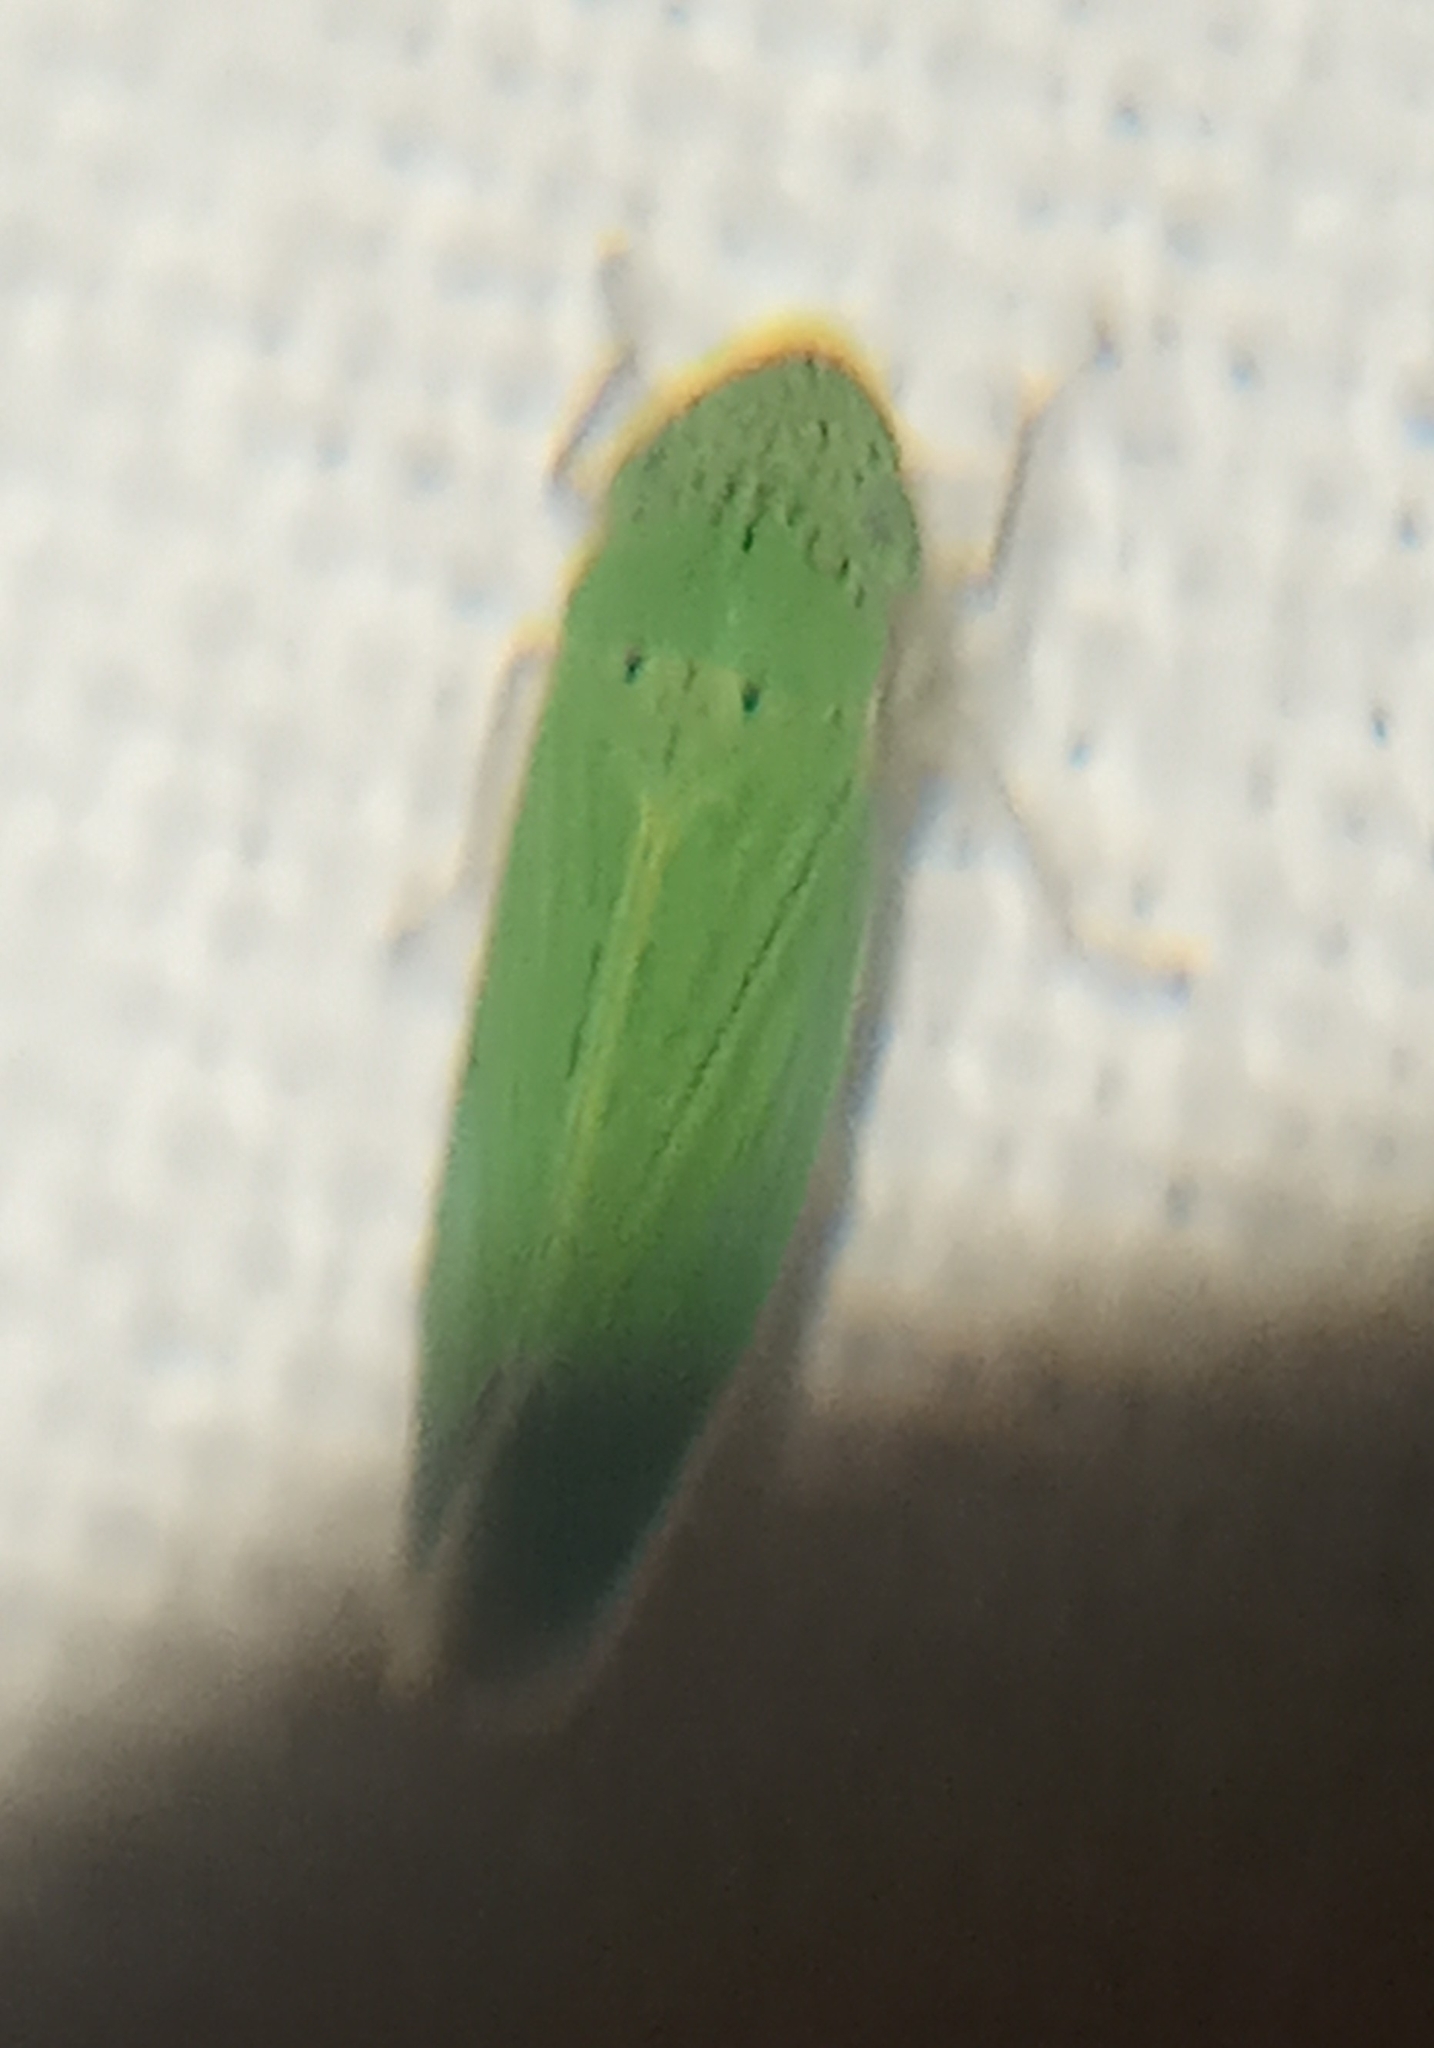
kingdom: Animalia
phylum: Arthropoda
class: Insecta
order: Hemiptera
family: Cicadellidae
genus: Hortensia
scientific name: Hortensia similis
